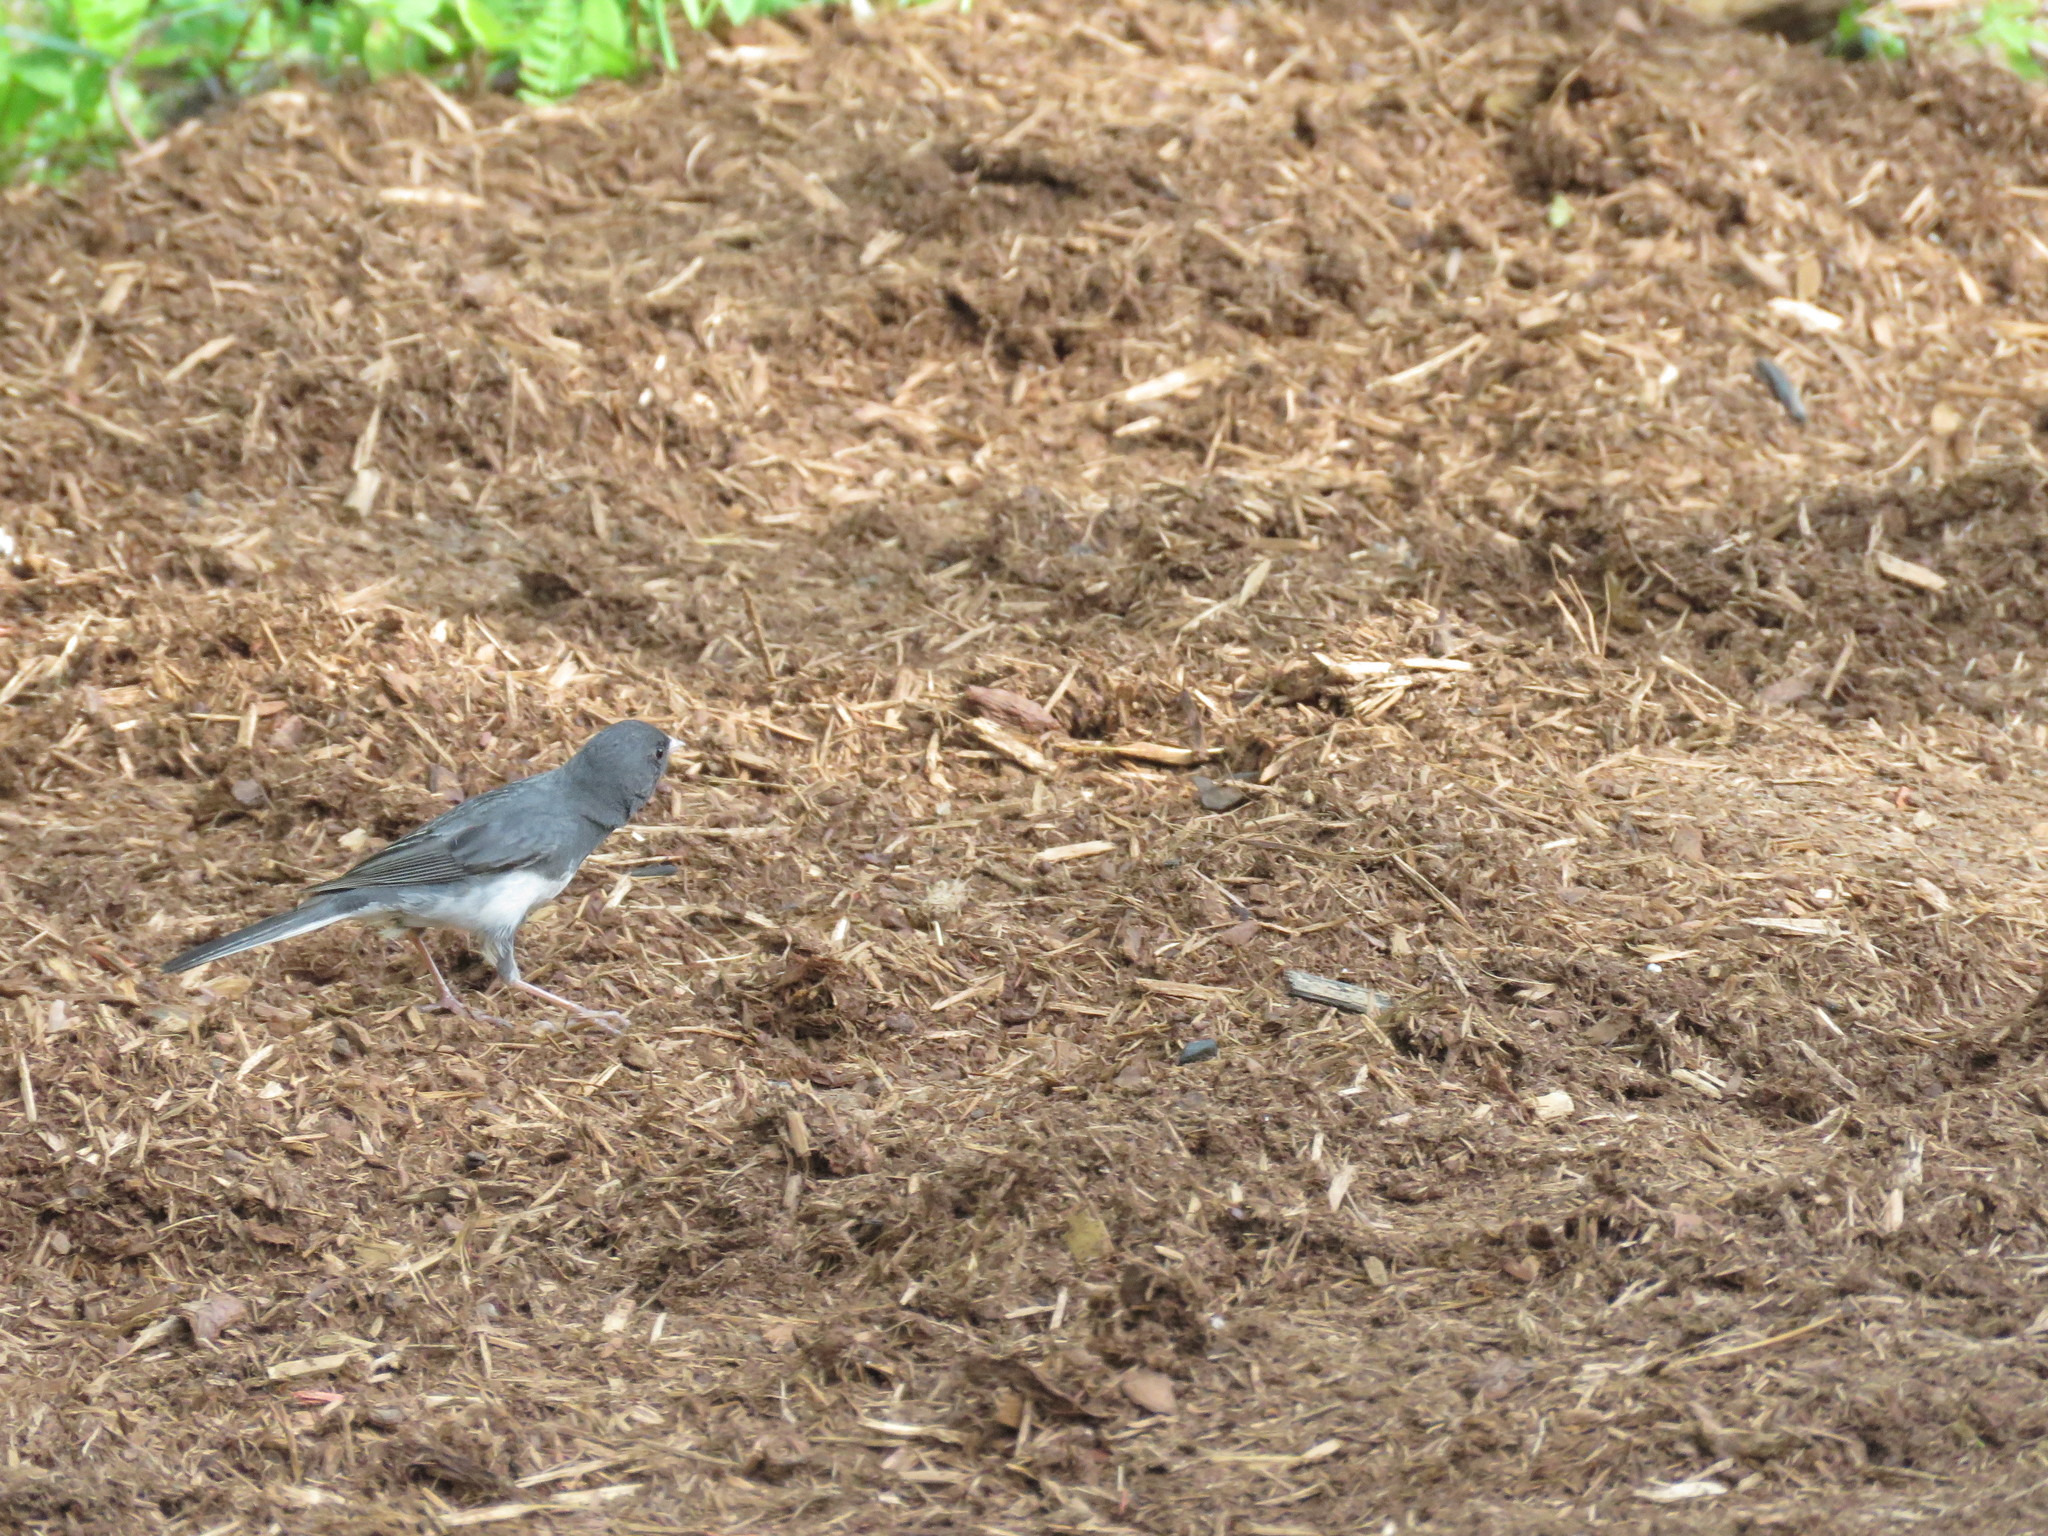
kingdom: Animalia
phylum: Chordata
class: Aves
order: Passeriformes
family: Passerellidae
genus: Junco
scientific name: Junco hyemalis
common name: Dark-eyed junco
